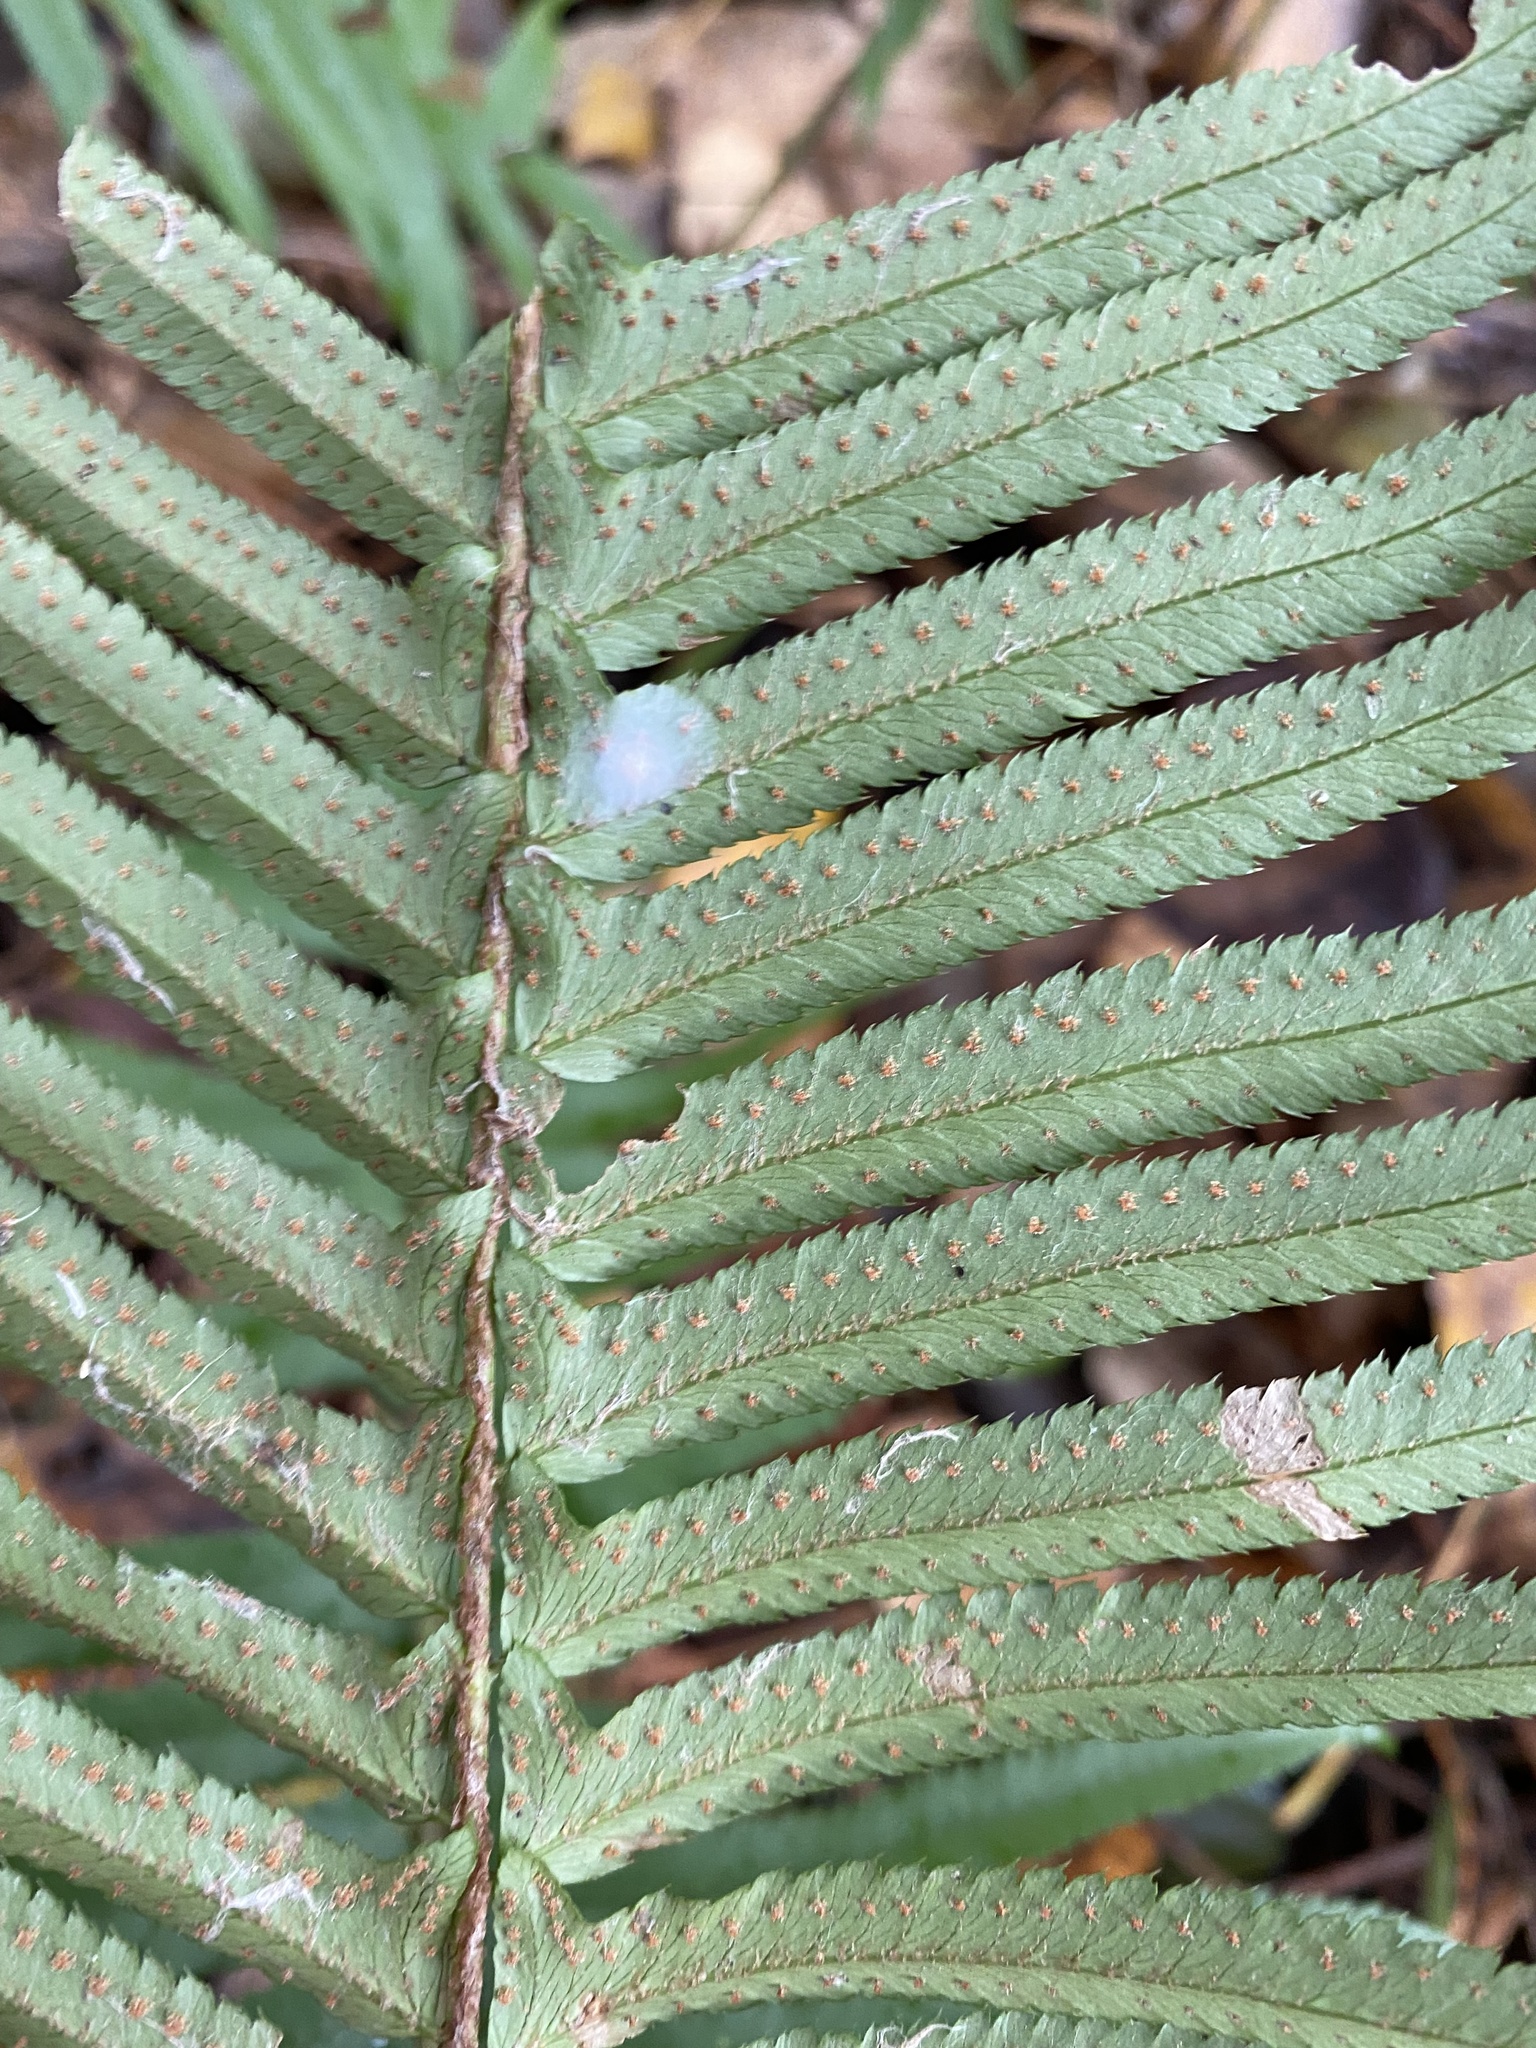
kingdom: Plantae
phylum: Tracheophyta
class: Polypodiopsida
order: Polypodiales
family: Dryopteridaceae
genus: Polystichum
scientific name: Polystichum munitum
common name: Western sword-fern
